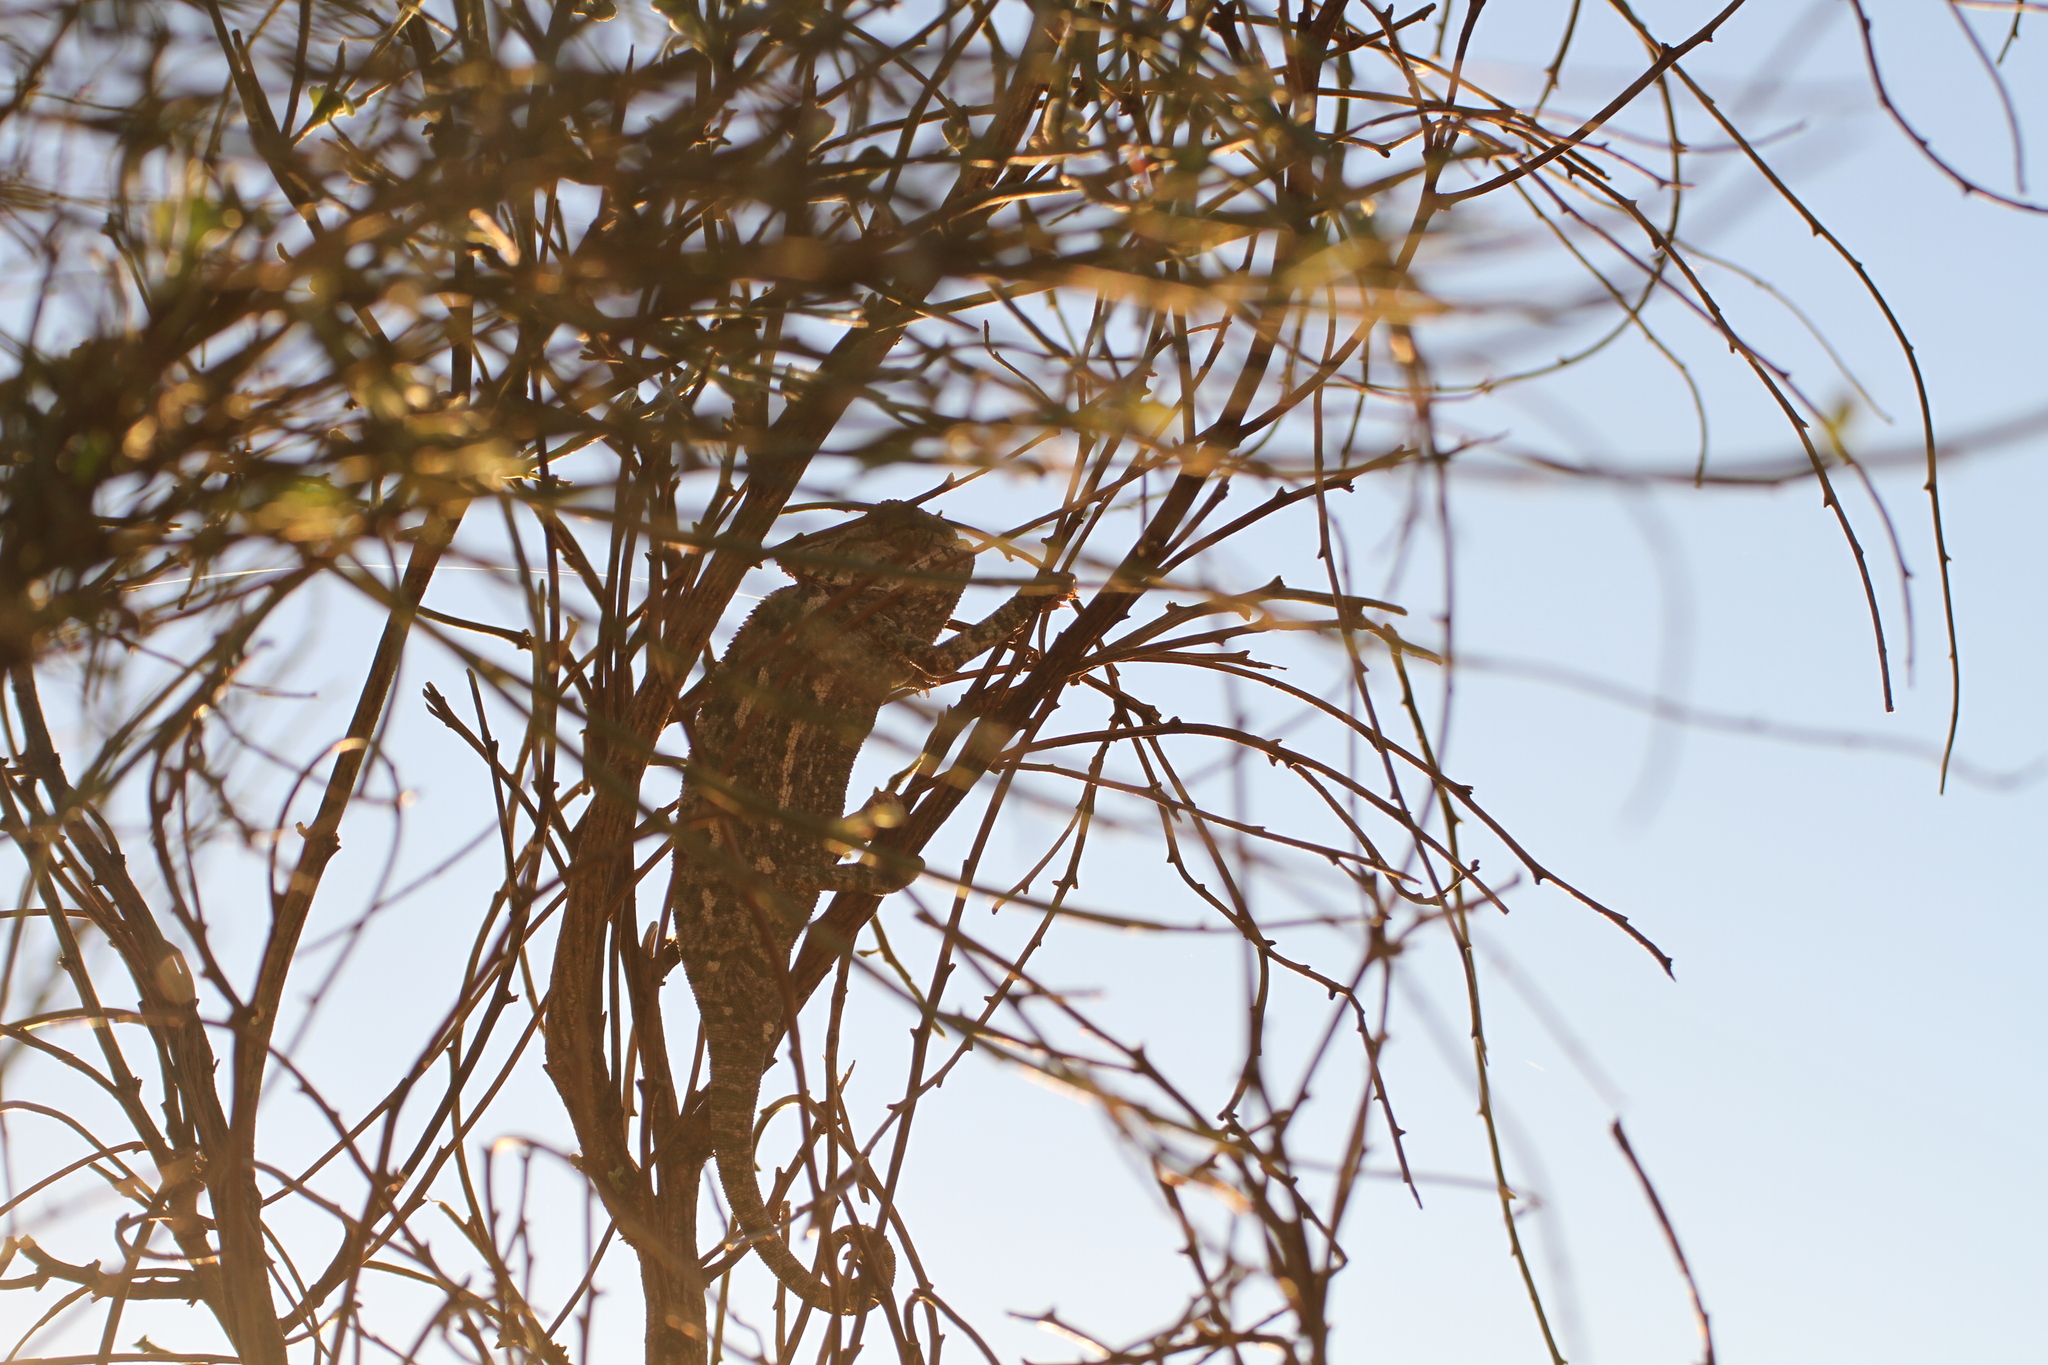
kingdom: Animalia
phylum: Chordata
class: Squamata
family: Chamaeleonidae
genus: Chamaeleo
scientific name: Chamaeleo chamaeleon
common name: Mediterranean chameleon
